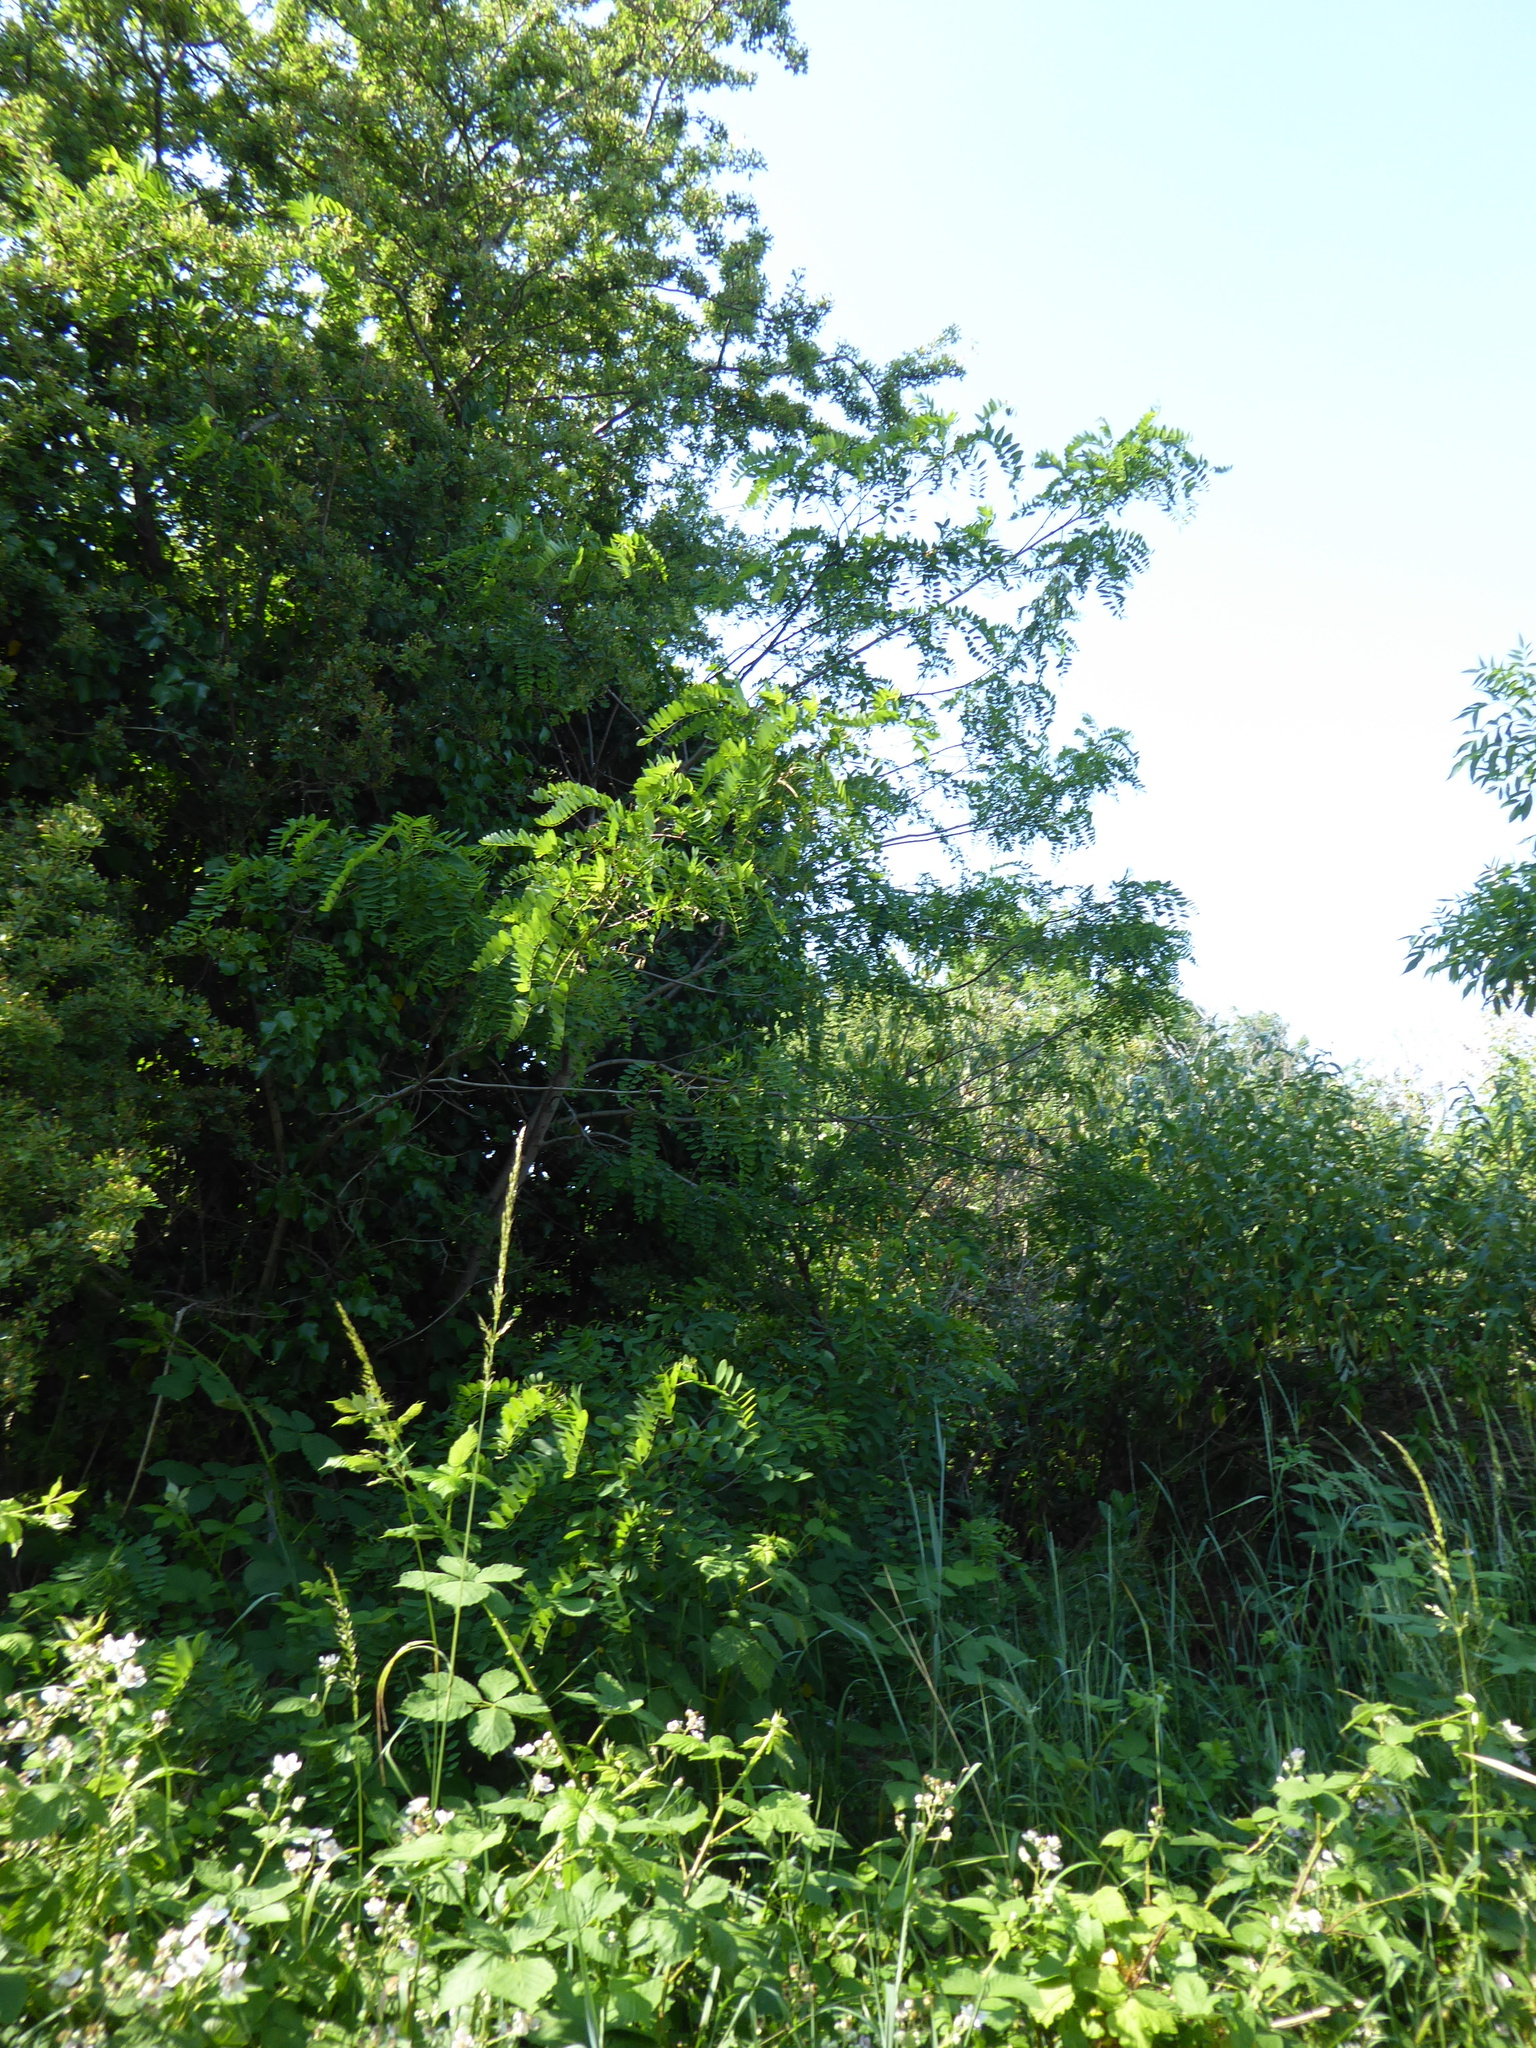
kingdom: Plantae
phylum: Tracheophyta
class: Magnoliopsida
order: Fabales
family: Fabaceae
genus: Robinia
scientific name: Robinia pseudoacacia
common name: Black locust
